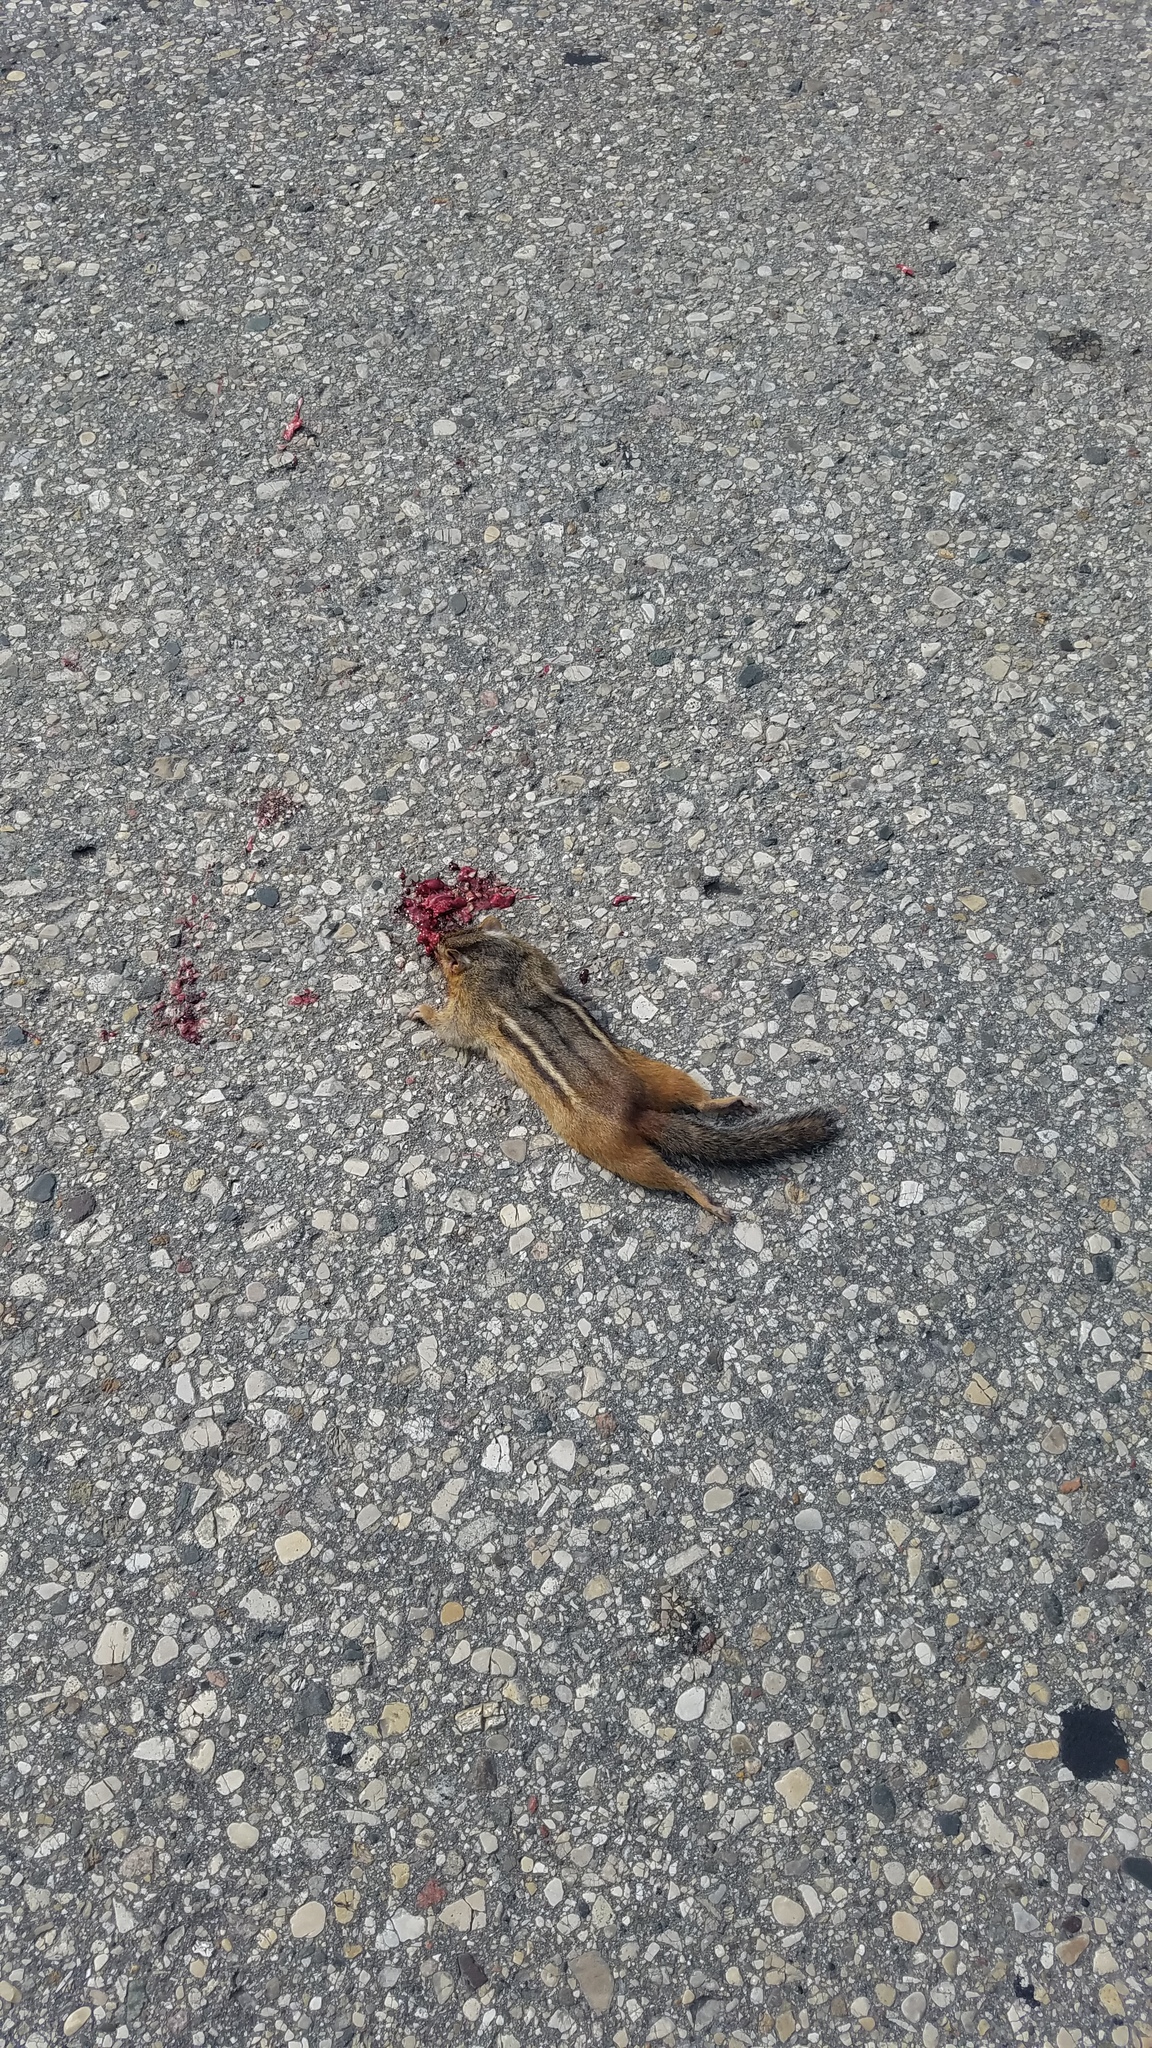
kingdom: Animalia
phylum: Chordata
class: Mammalia
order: Rodentia
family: Sciuridae
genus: Tamias
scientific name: Tamias striatus
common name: Eastern chipmunk
